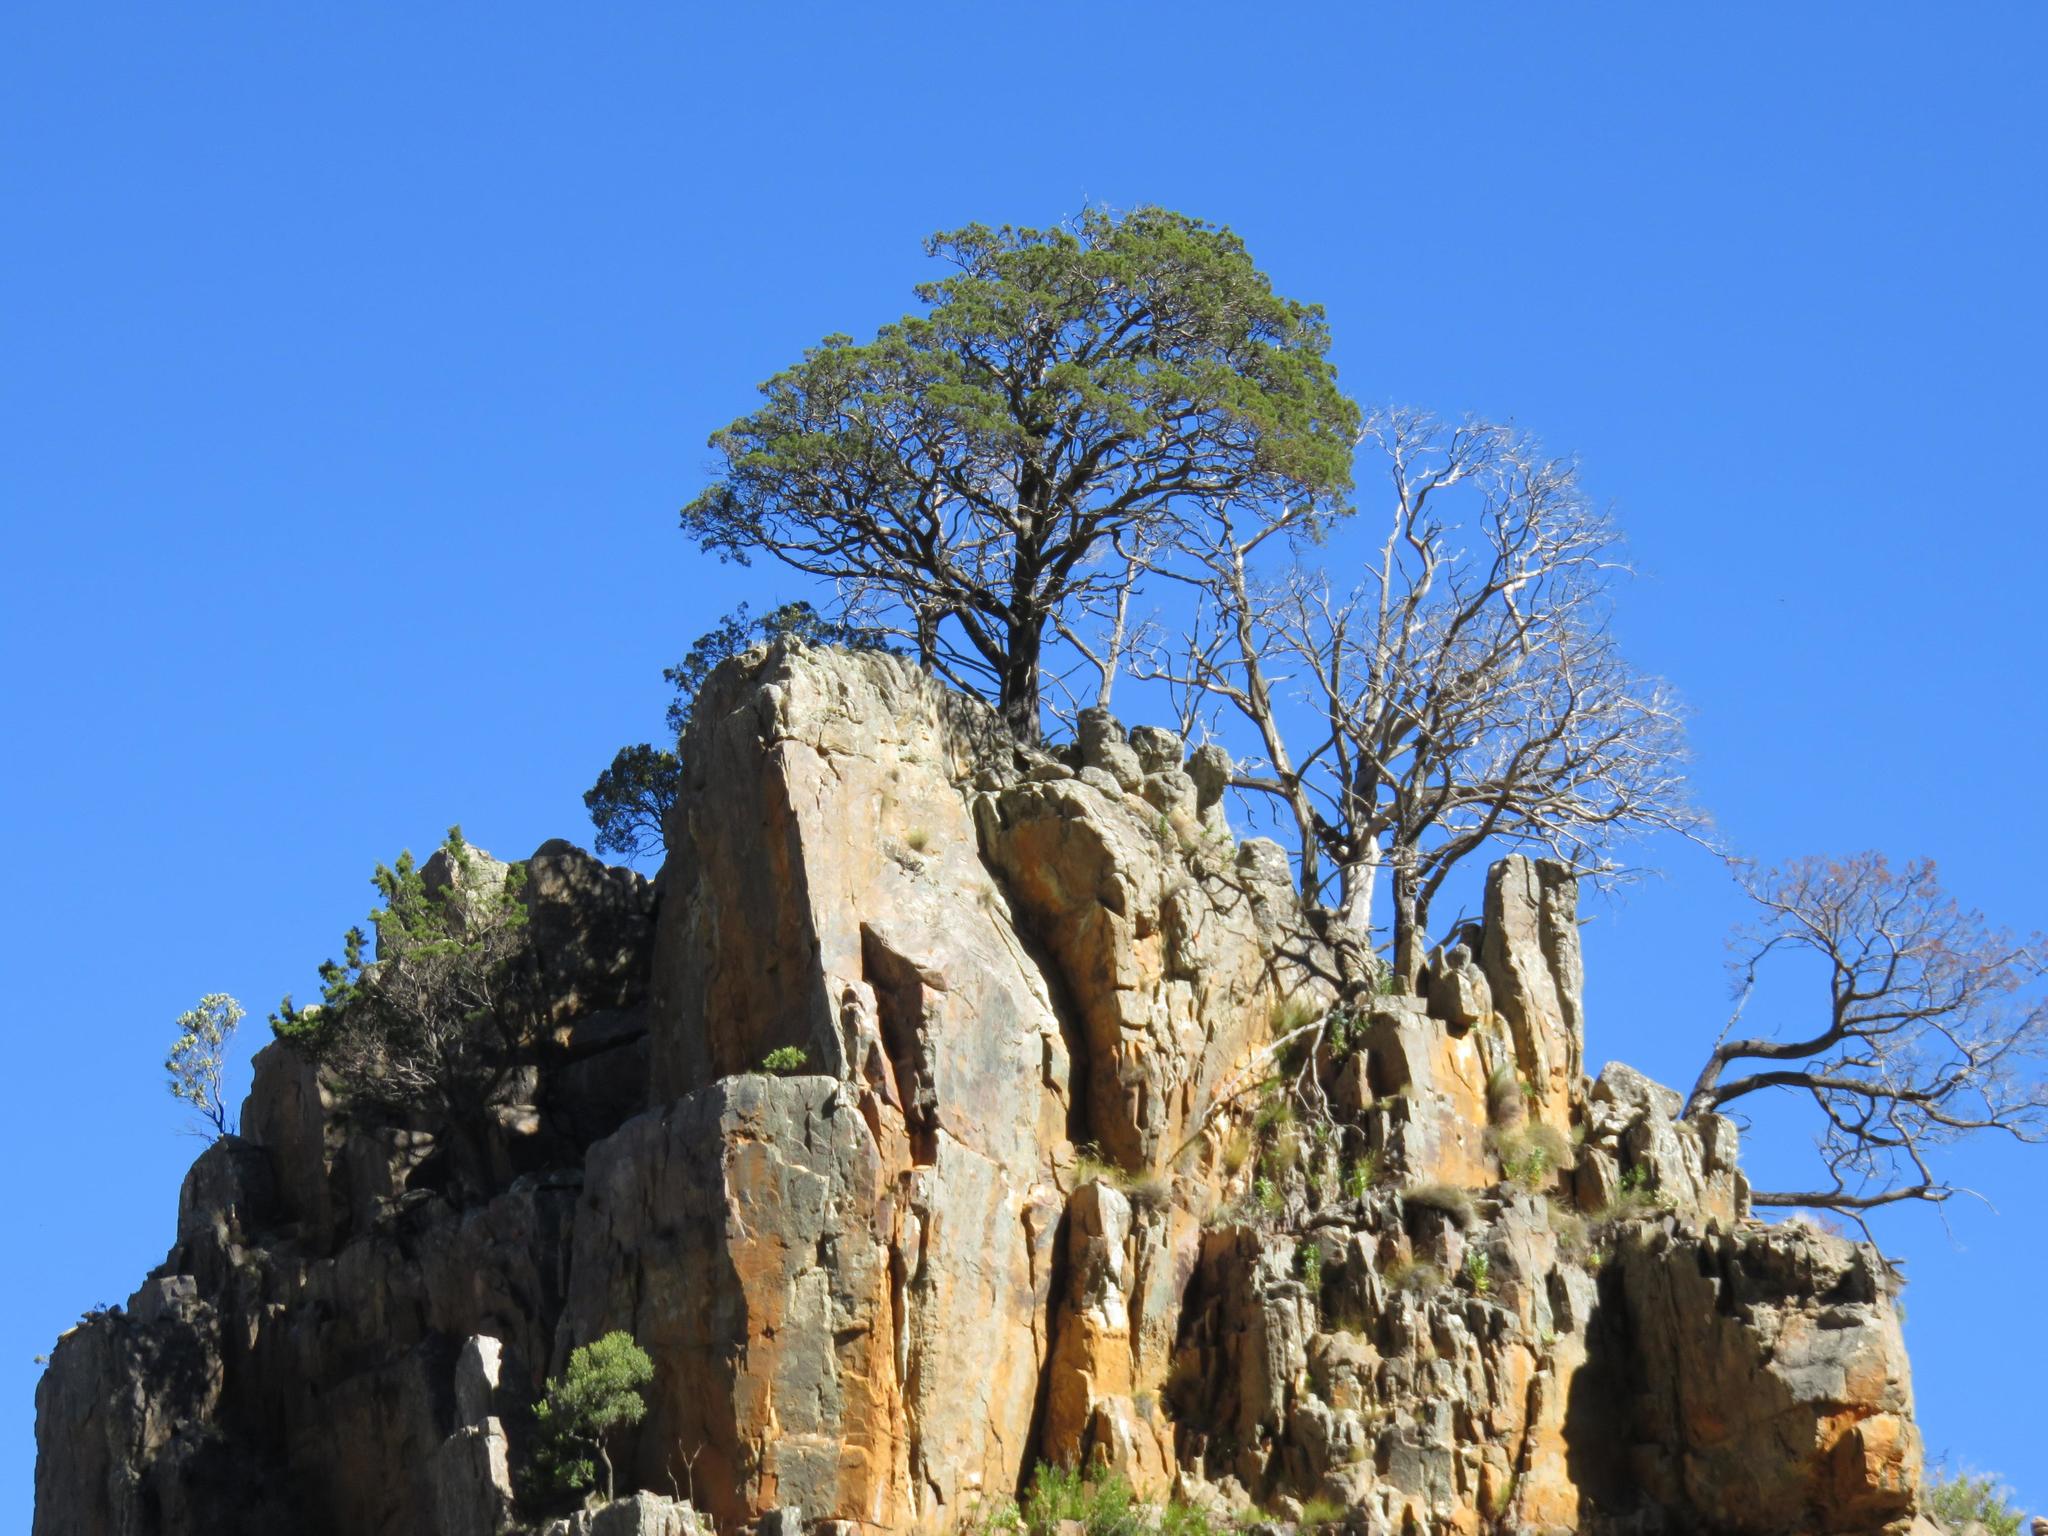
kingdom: Plantae
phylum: Tracheophyta
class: Pinopsida
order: Pinales
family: Cupressaceae
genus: Widdringtonia
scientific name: Widdringtonia nodiflora
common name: Cape cypress
